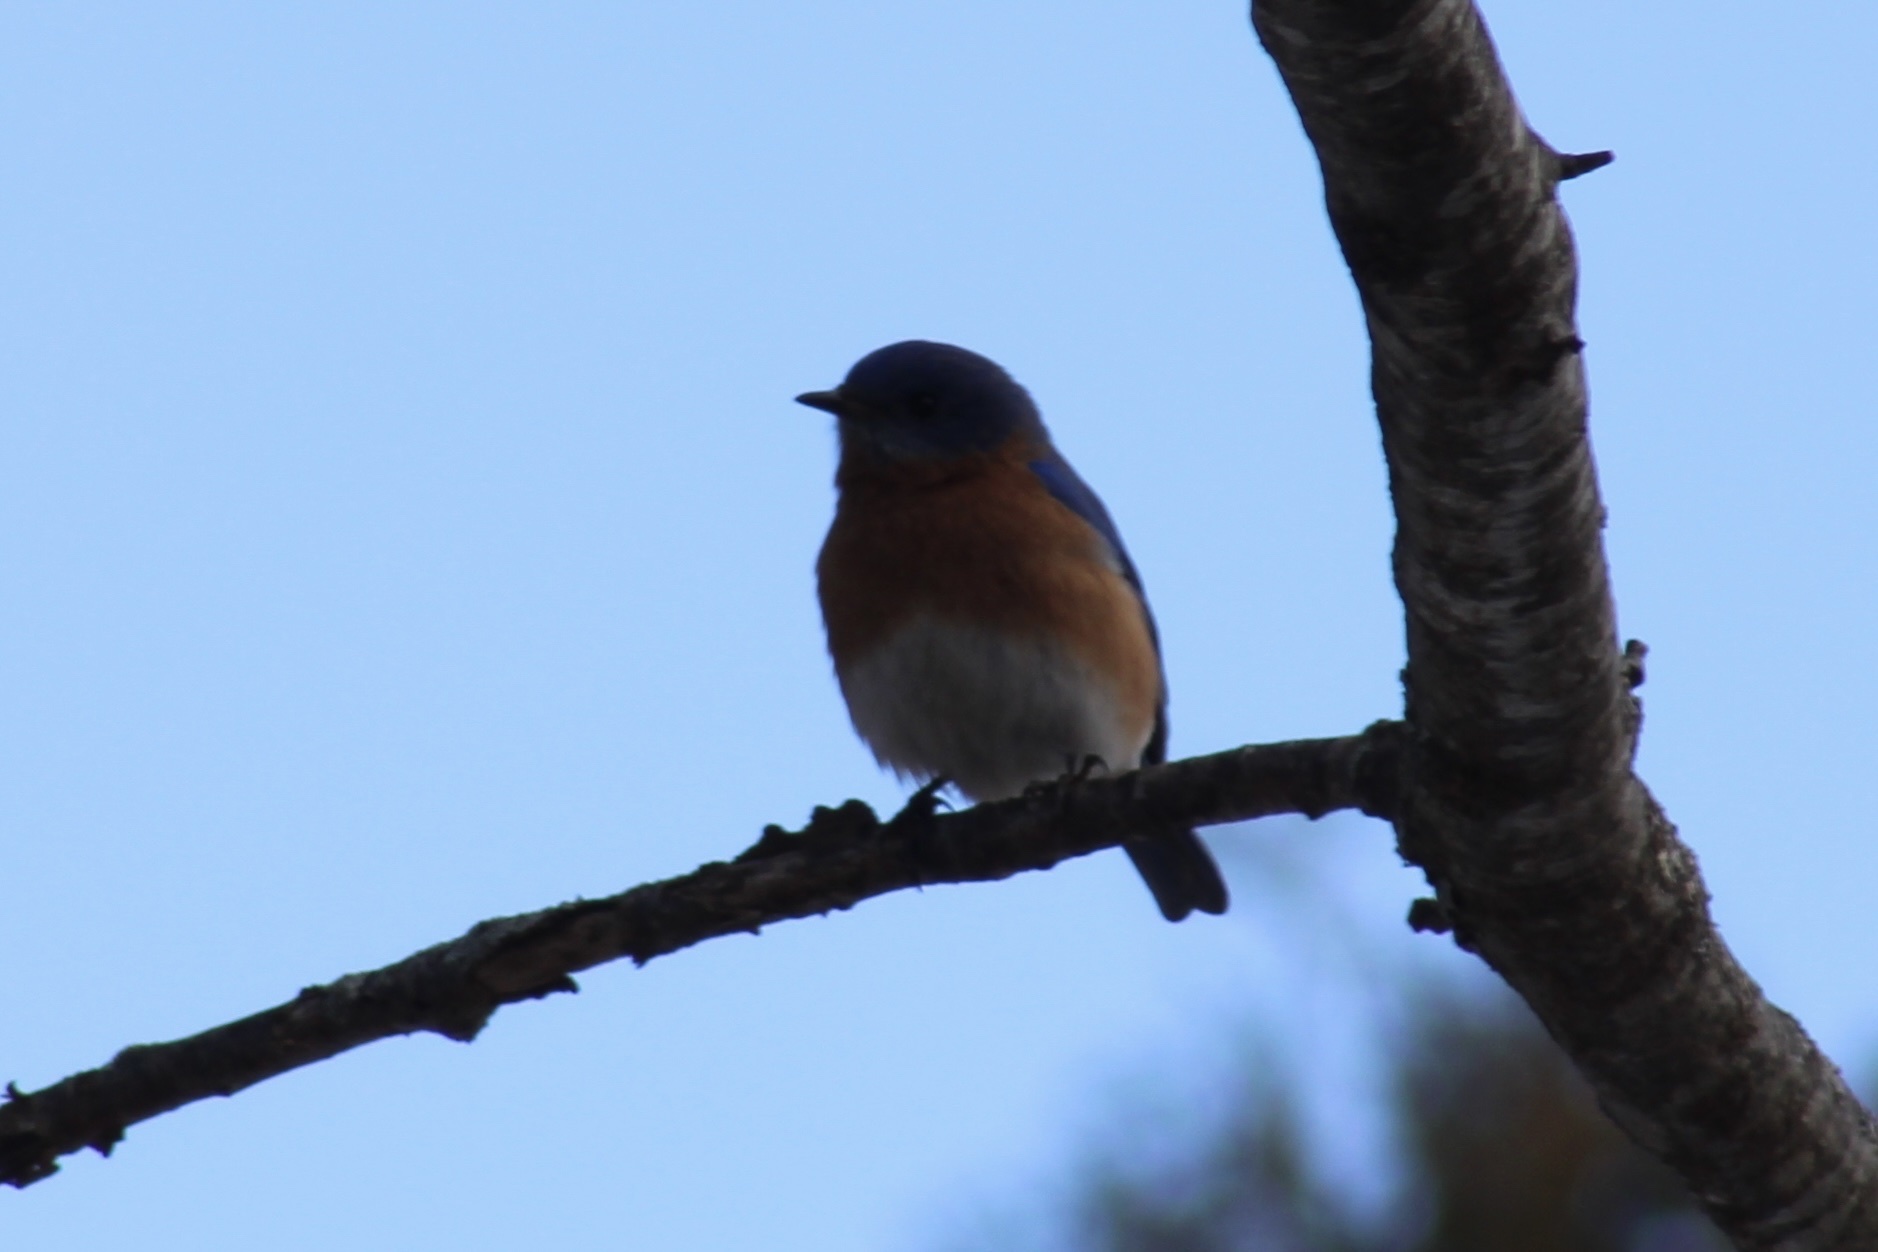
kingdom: Animalia
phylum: Chordata
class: Aves
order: Passeriformes
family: Turdidae
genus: Sialia
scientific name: Sialia sialis
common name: Eastern bluebird
